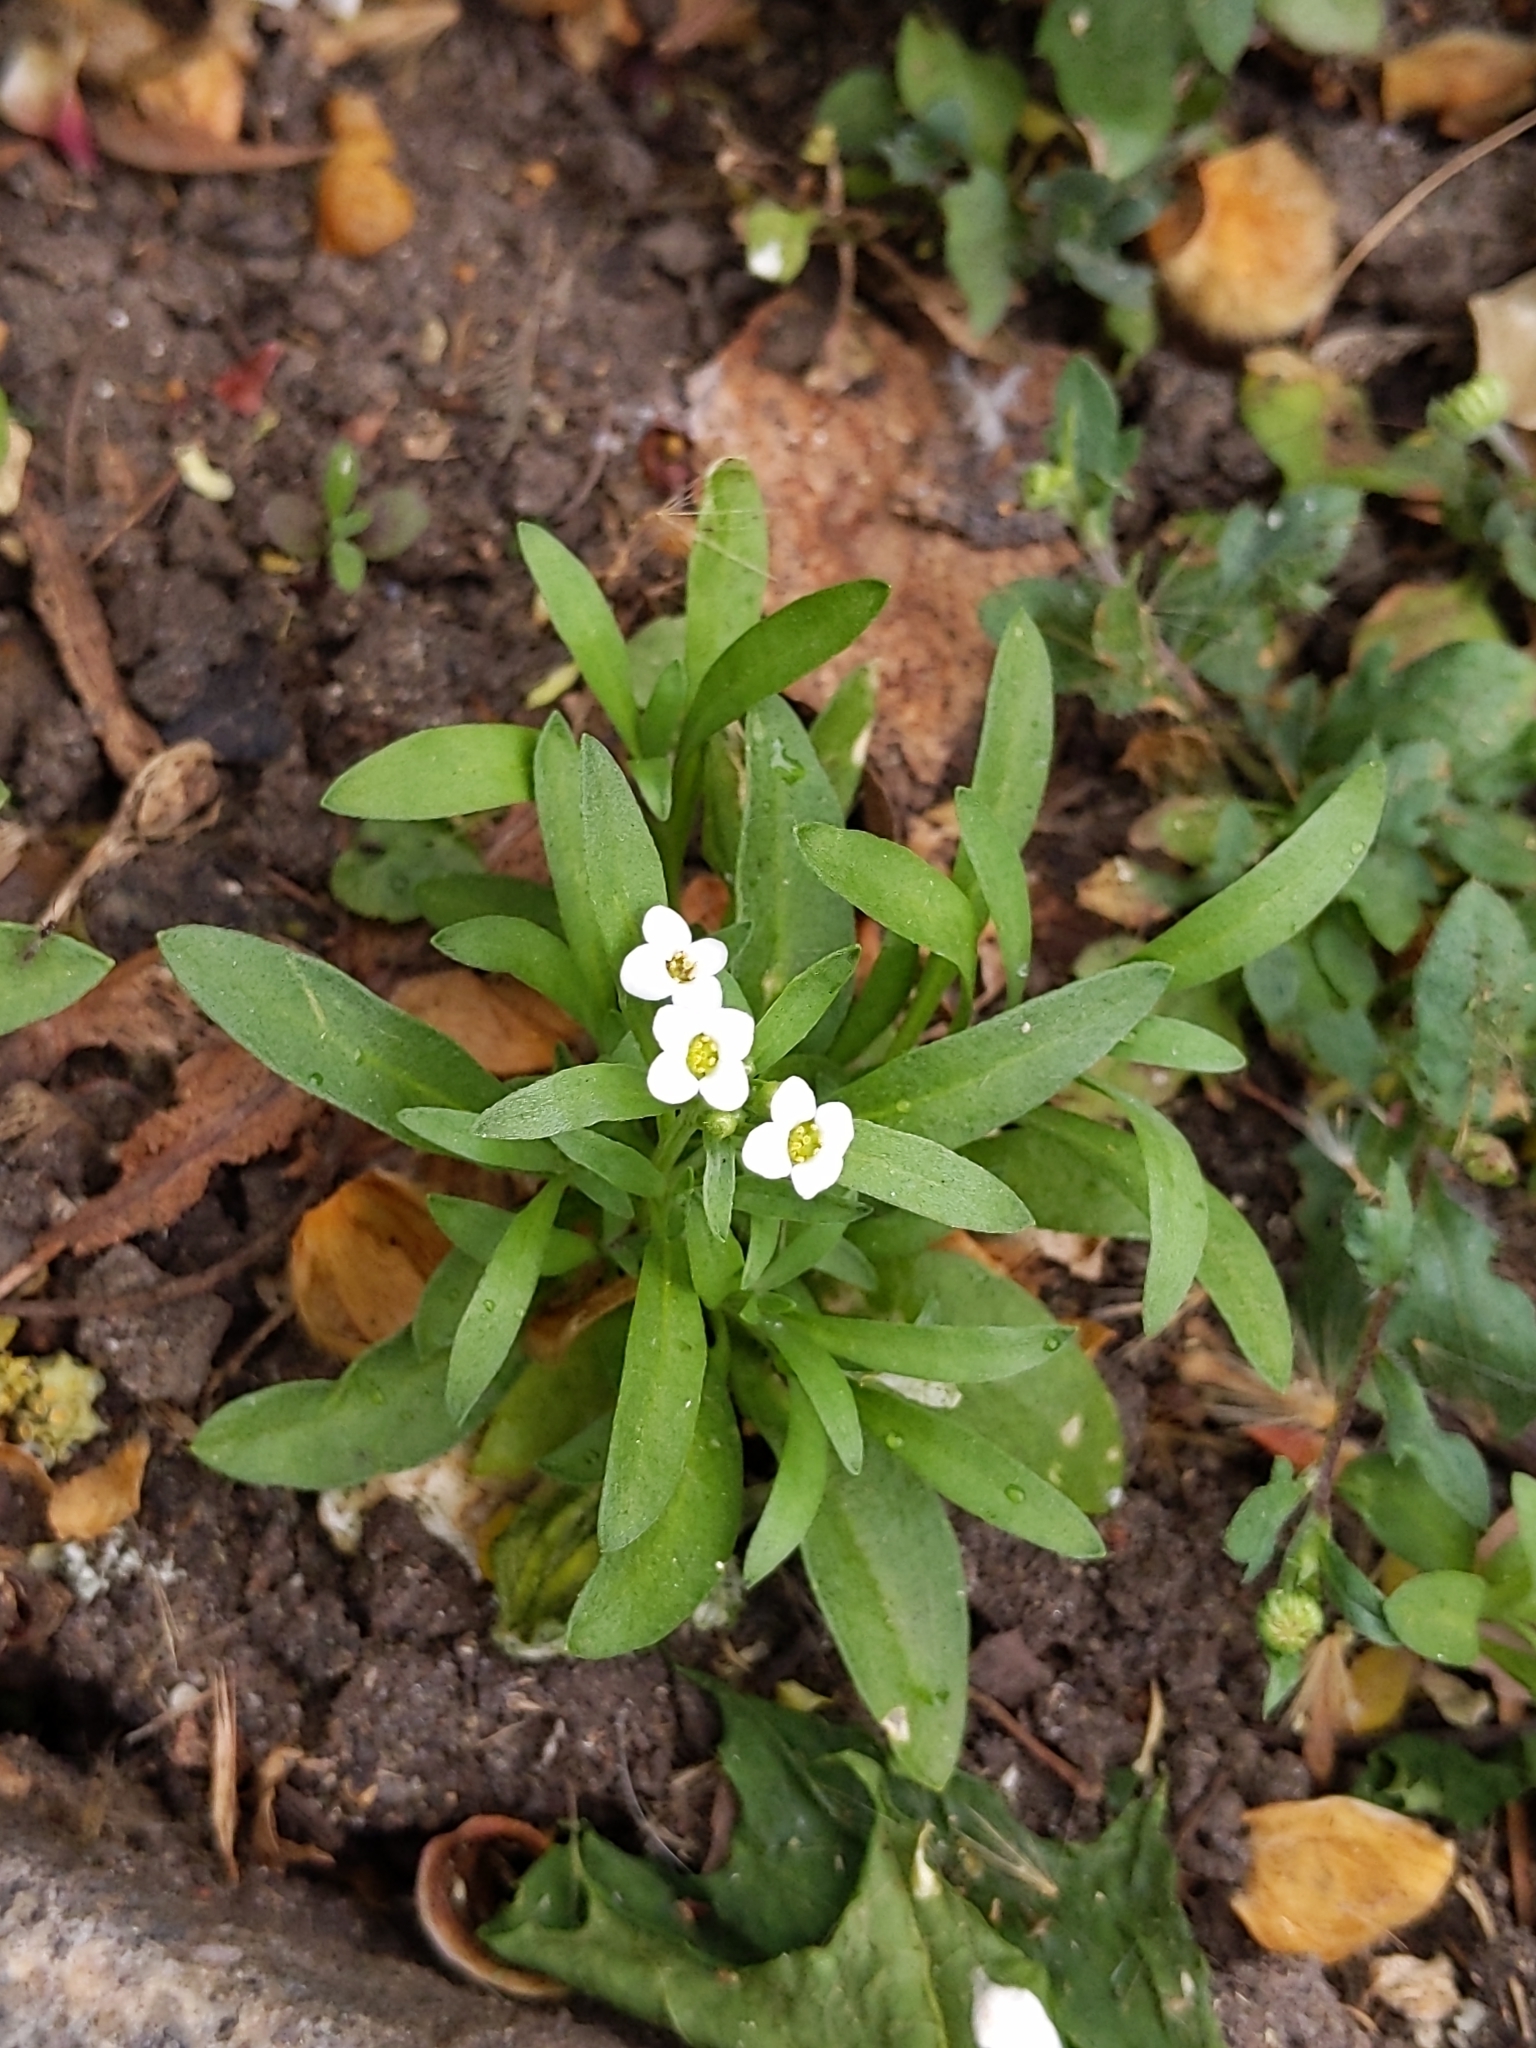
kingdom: Plantae
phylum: Tracheophyta
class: Magnoliopsida
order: Brassicales
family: Brassicaceae
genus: Lobularia
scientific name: Lobularia maritima
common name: Sweet alison
